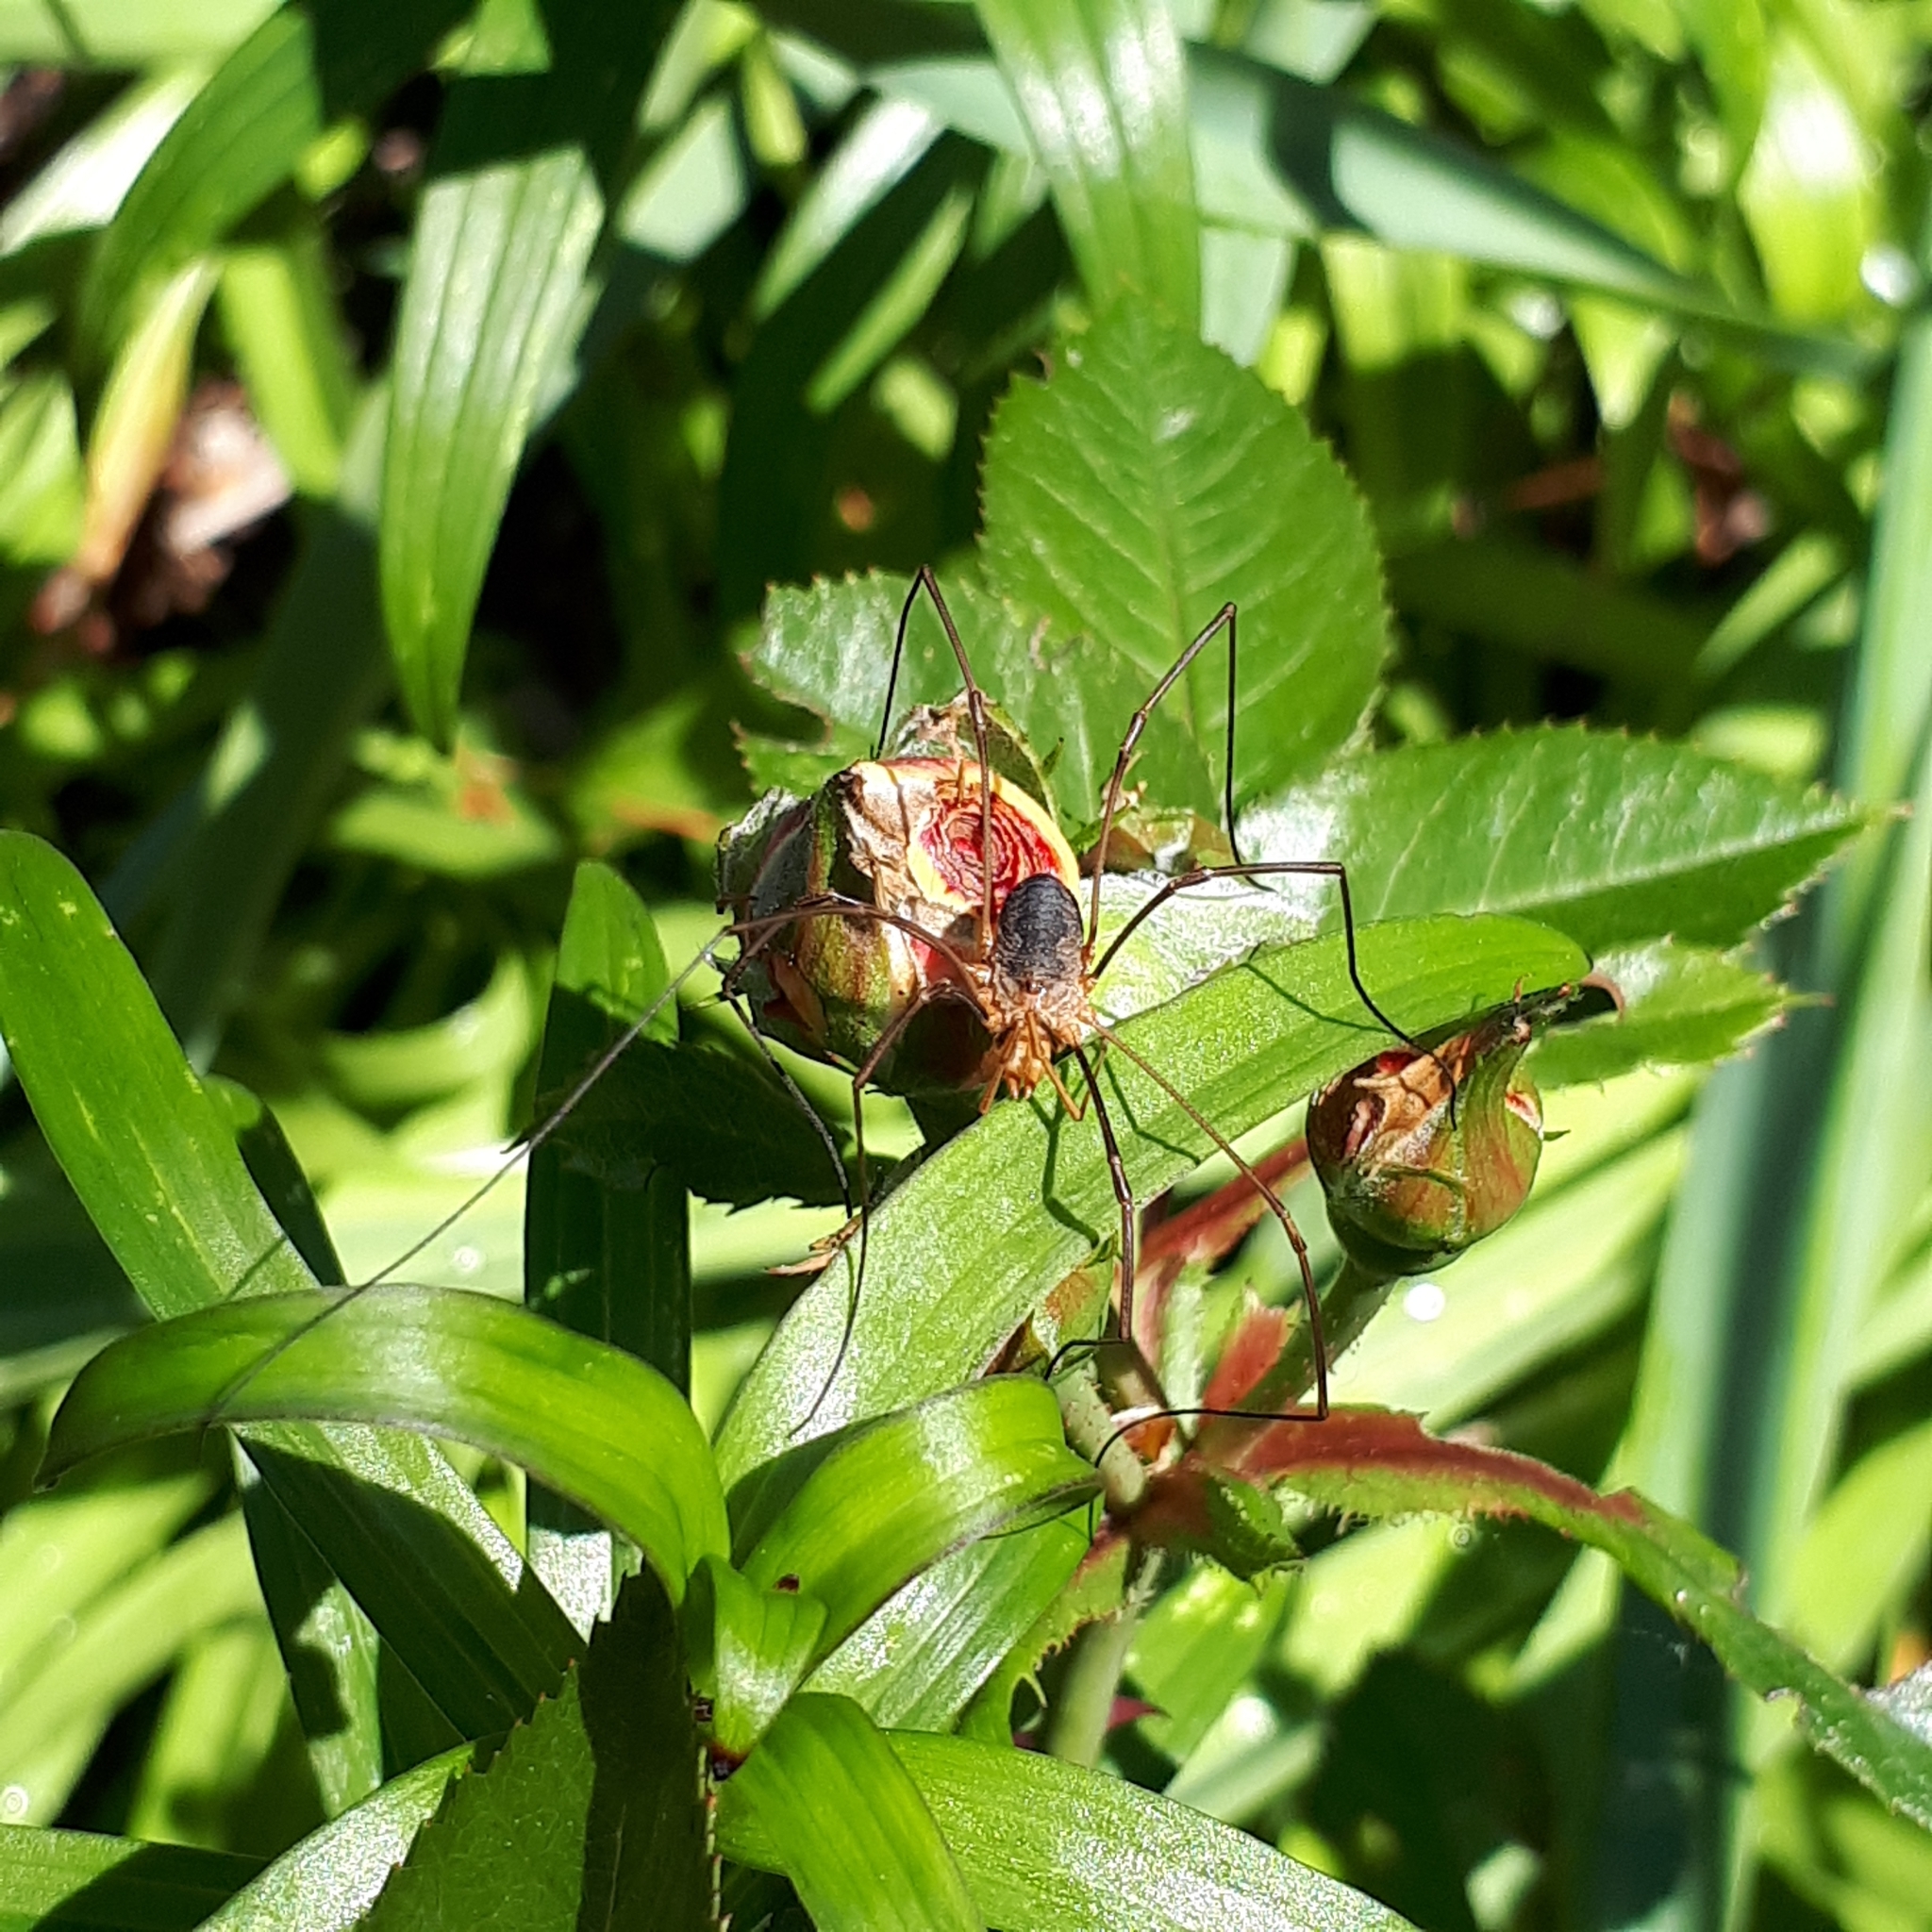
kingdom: Animalia
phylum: Arthropoda
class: Arachnida
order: Opiliones
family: Phalangiidae
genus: Phalangium
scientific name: Phalangium opilio
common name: Daddy longleg
